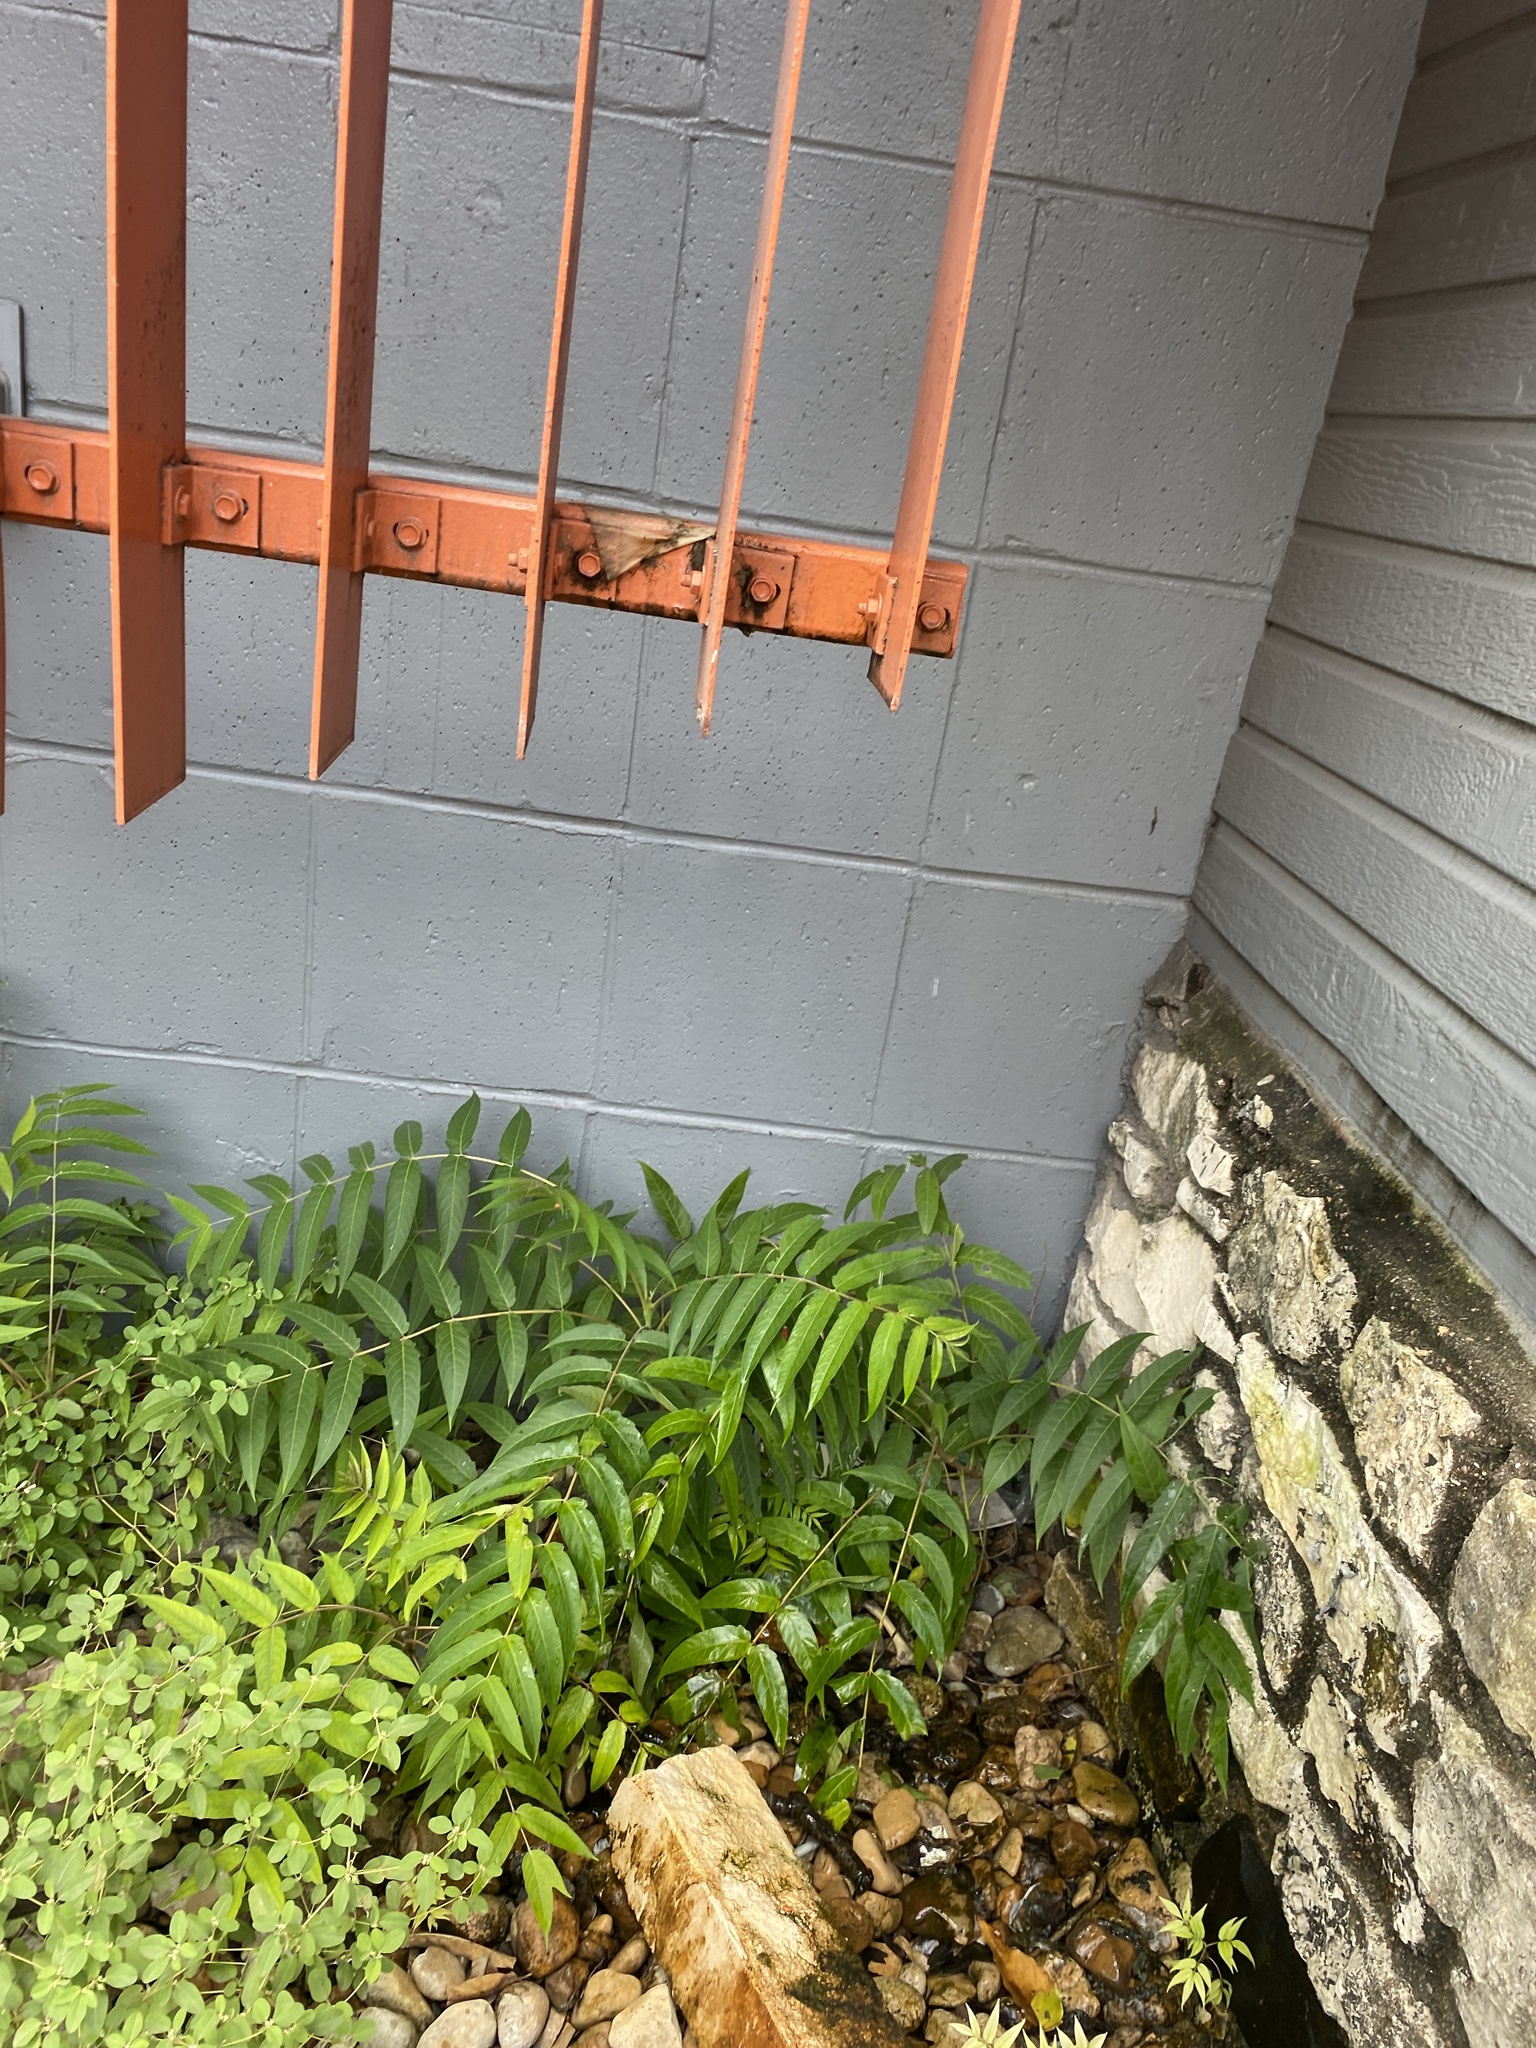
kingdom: Plantae
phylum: Tracheophyta
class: Magnoliopsida
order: Sapindales
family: Simaroubaceae
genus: Ailanthus
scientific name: Ailanthus altissima
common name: Tree-of-heaven
